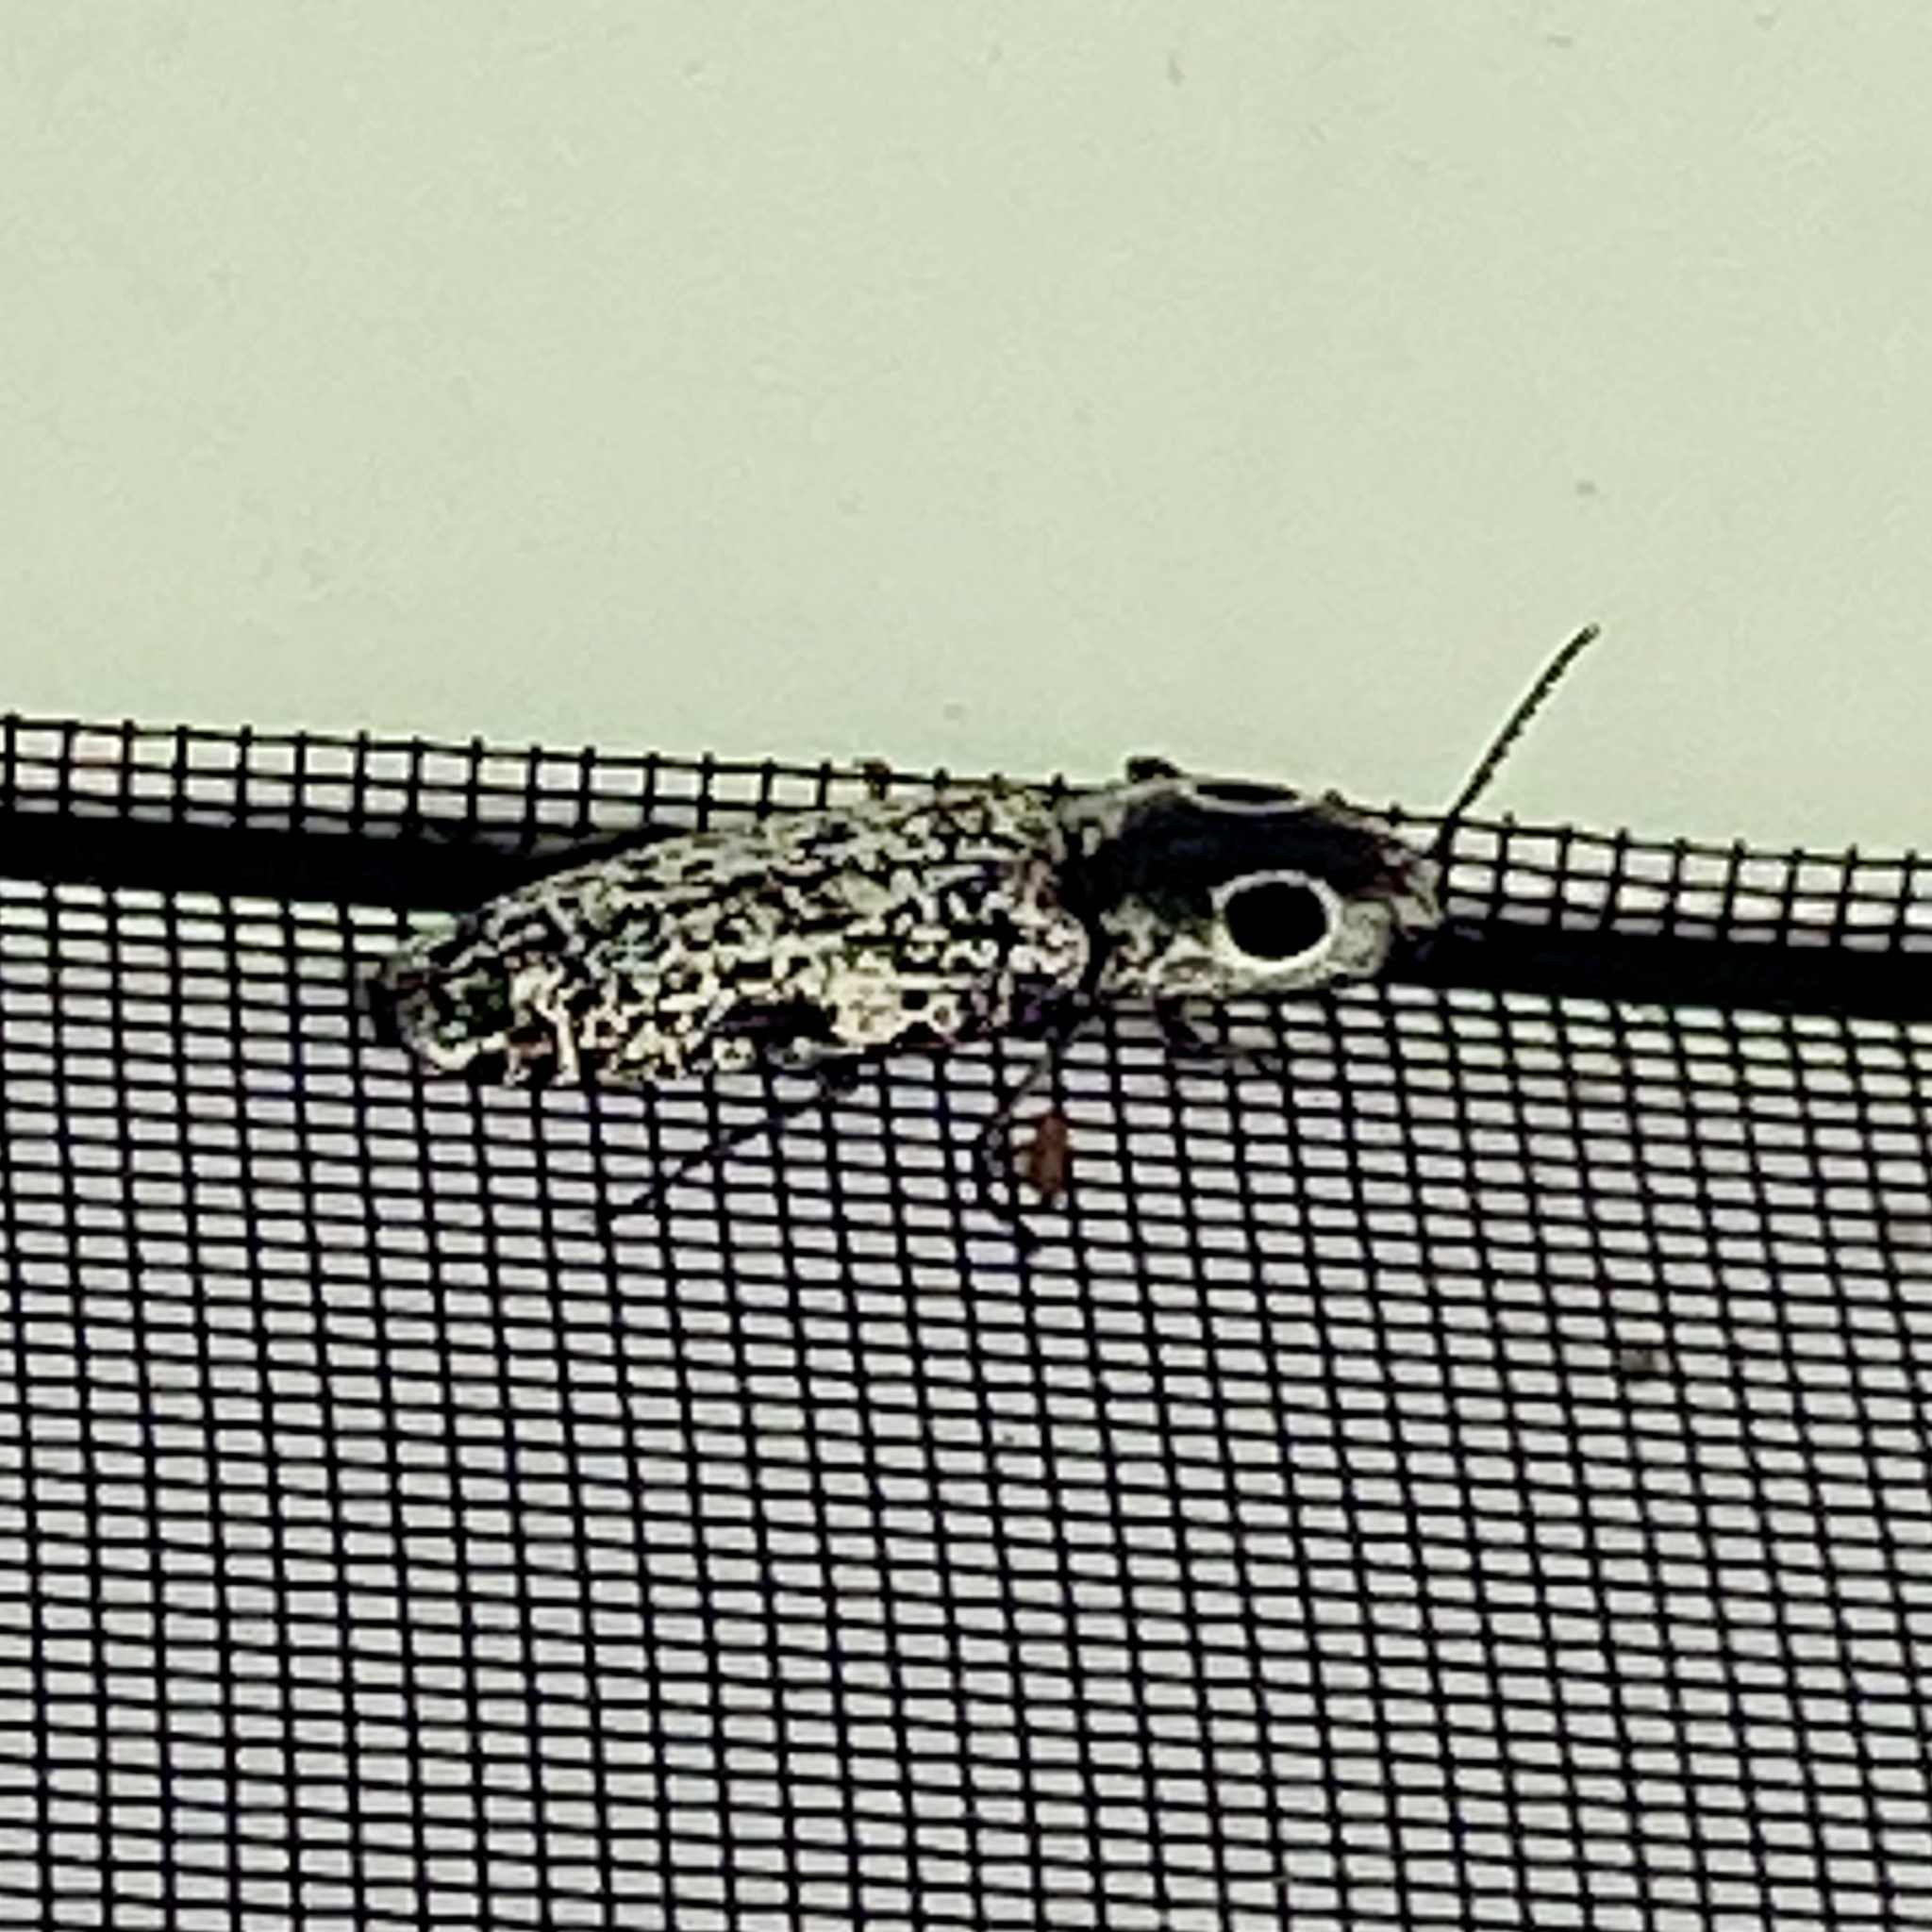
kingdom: Animalia
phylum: Arthropoda
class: Insecta
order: Coleoptera
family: Elateridae
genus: Alaus
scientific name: Alaus oculatus
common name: Eastern eyed click beetle
